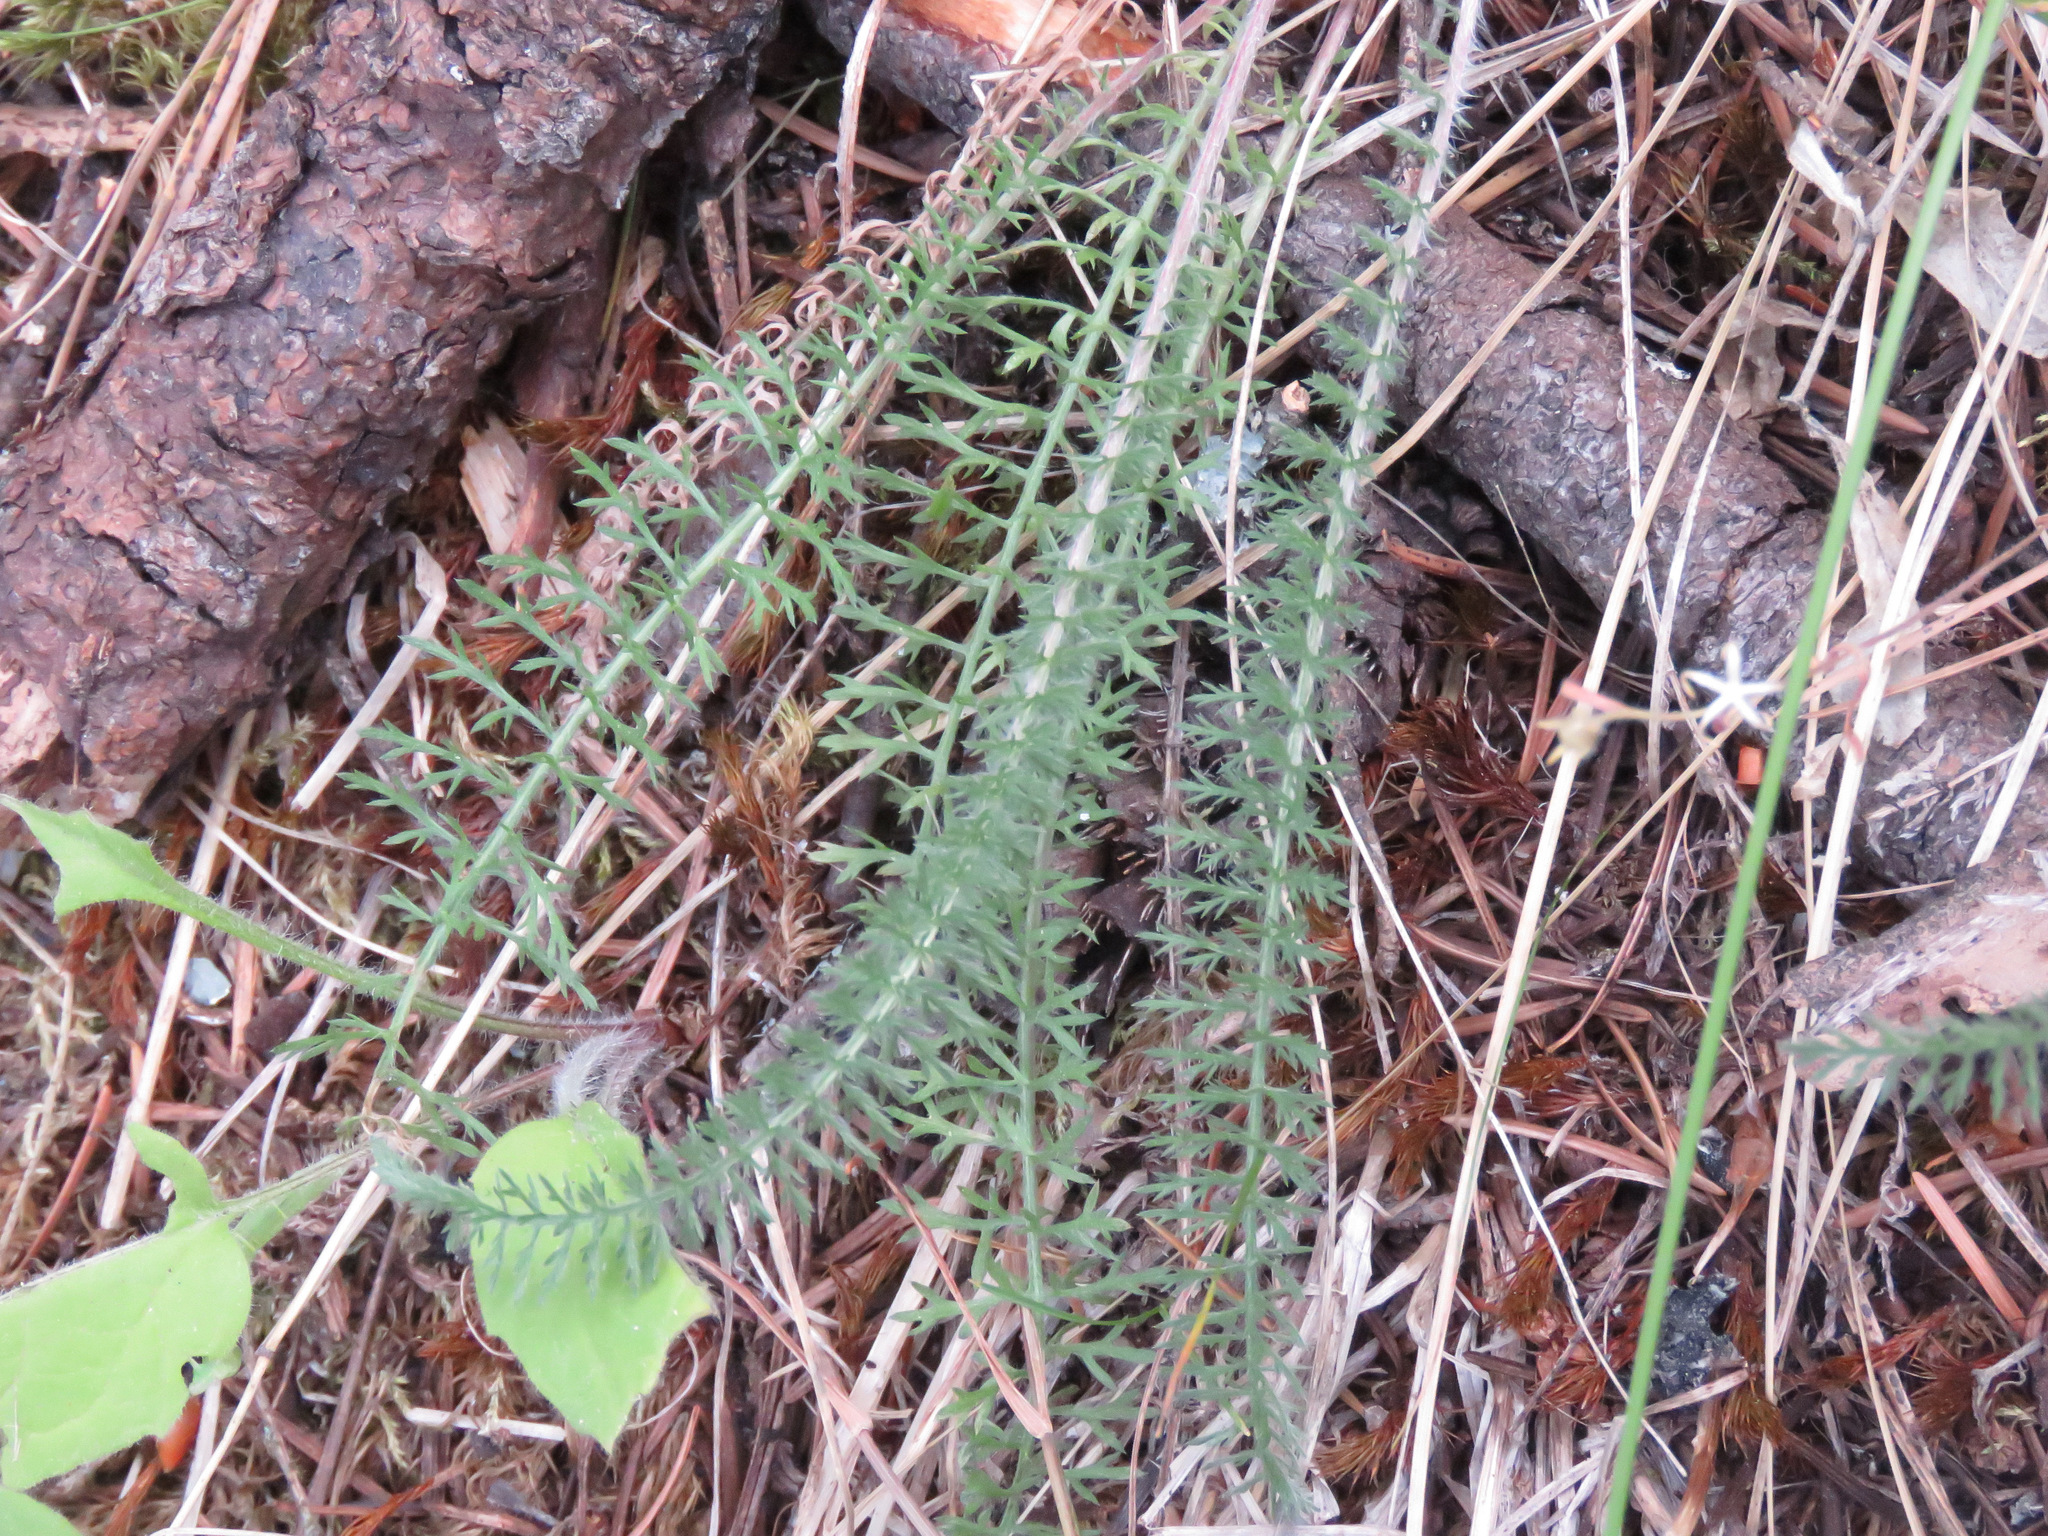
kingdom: Plantae
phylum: Tracheophyta
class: Magnoliopsida
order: Asterales
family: Asteraceae
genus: Achillea
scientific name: Achillea millefolium
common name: Yarrow
